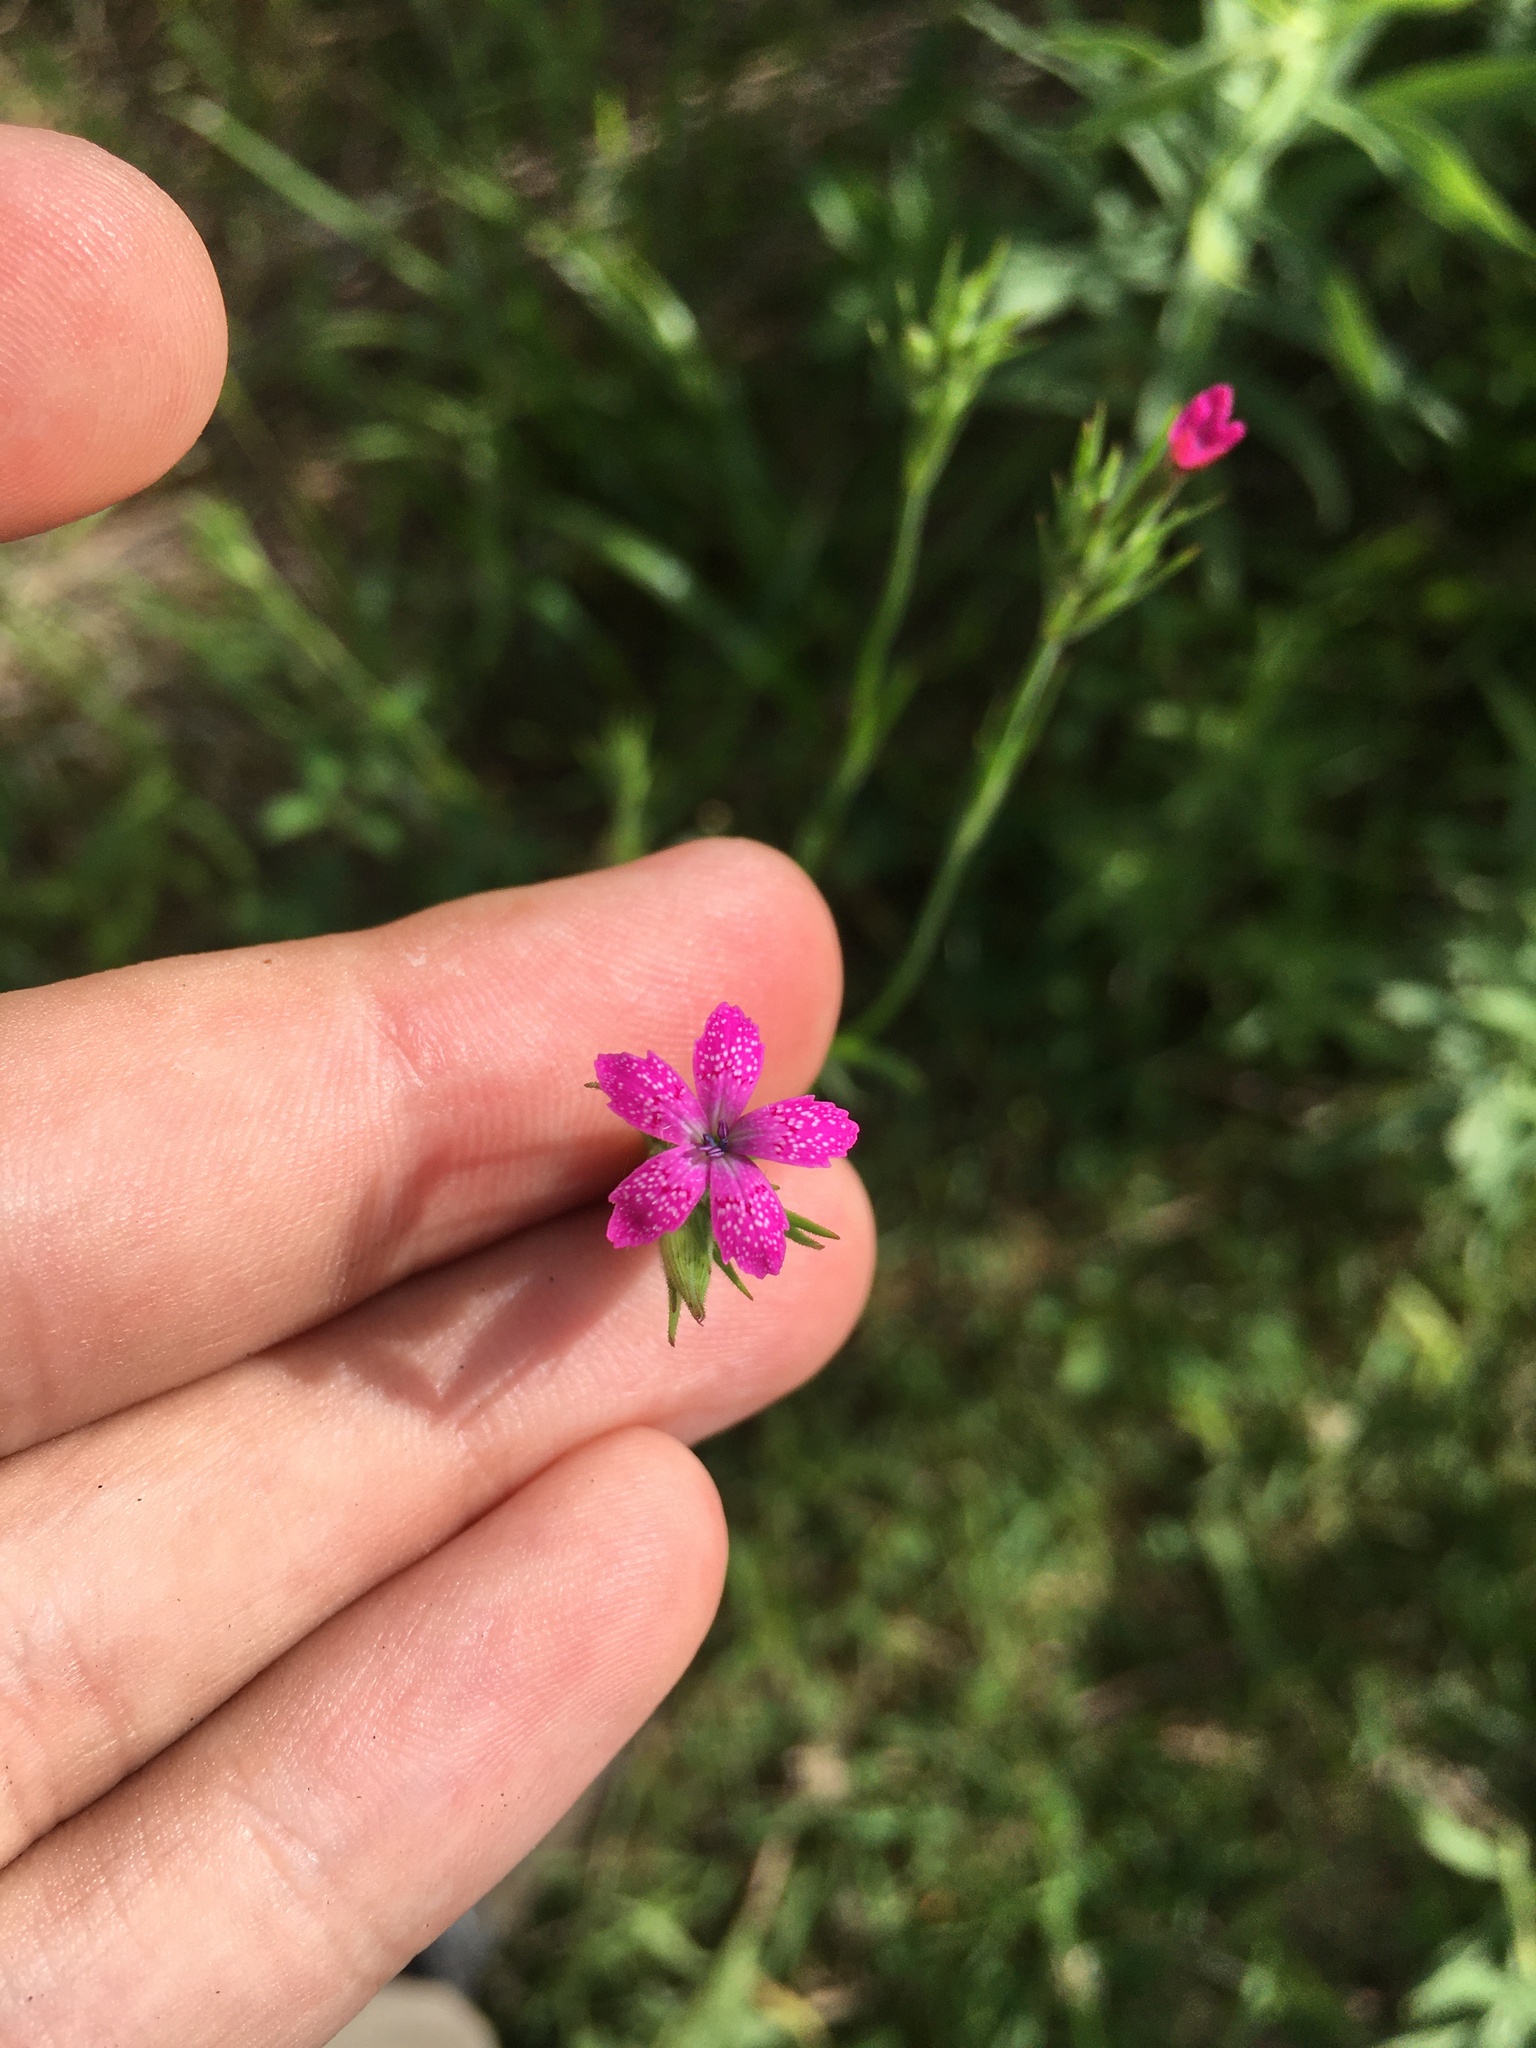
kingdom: Plantae
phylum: Tracheophyta
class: Magnoliopsida
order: Caryophyllales
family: Caryophyllaceae
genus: Dianthus
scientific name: Dianthus armeria
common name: Deptford pink
